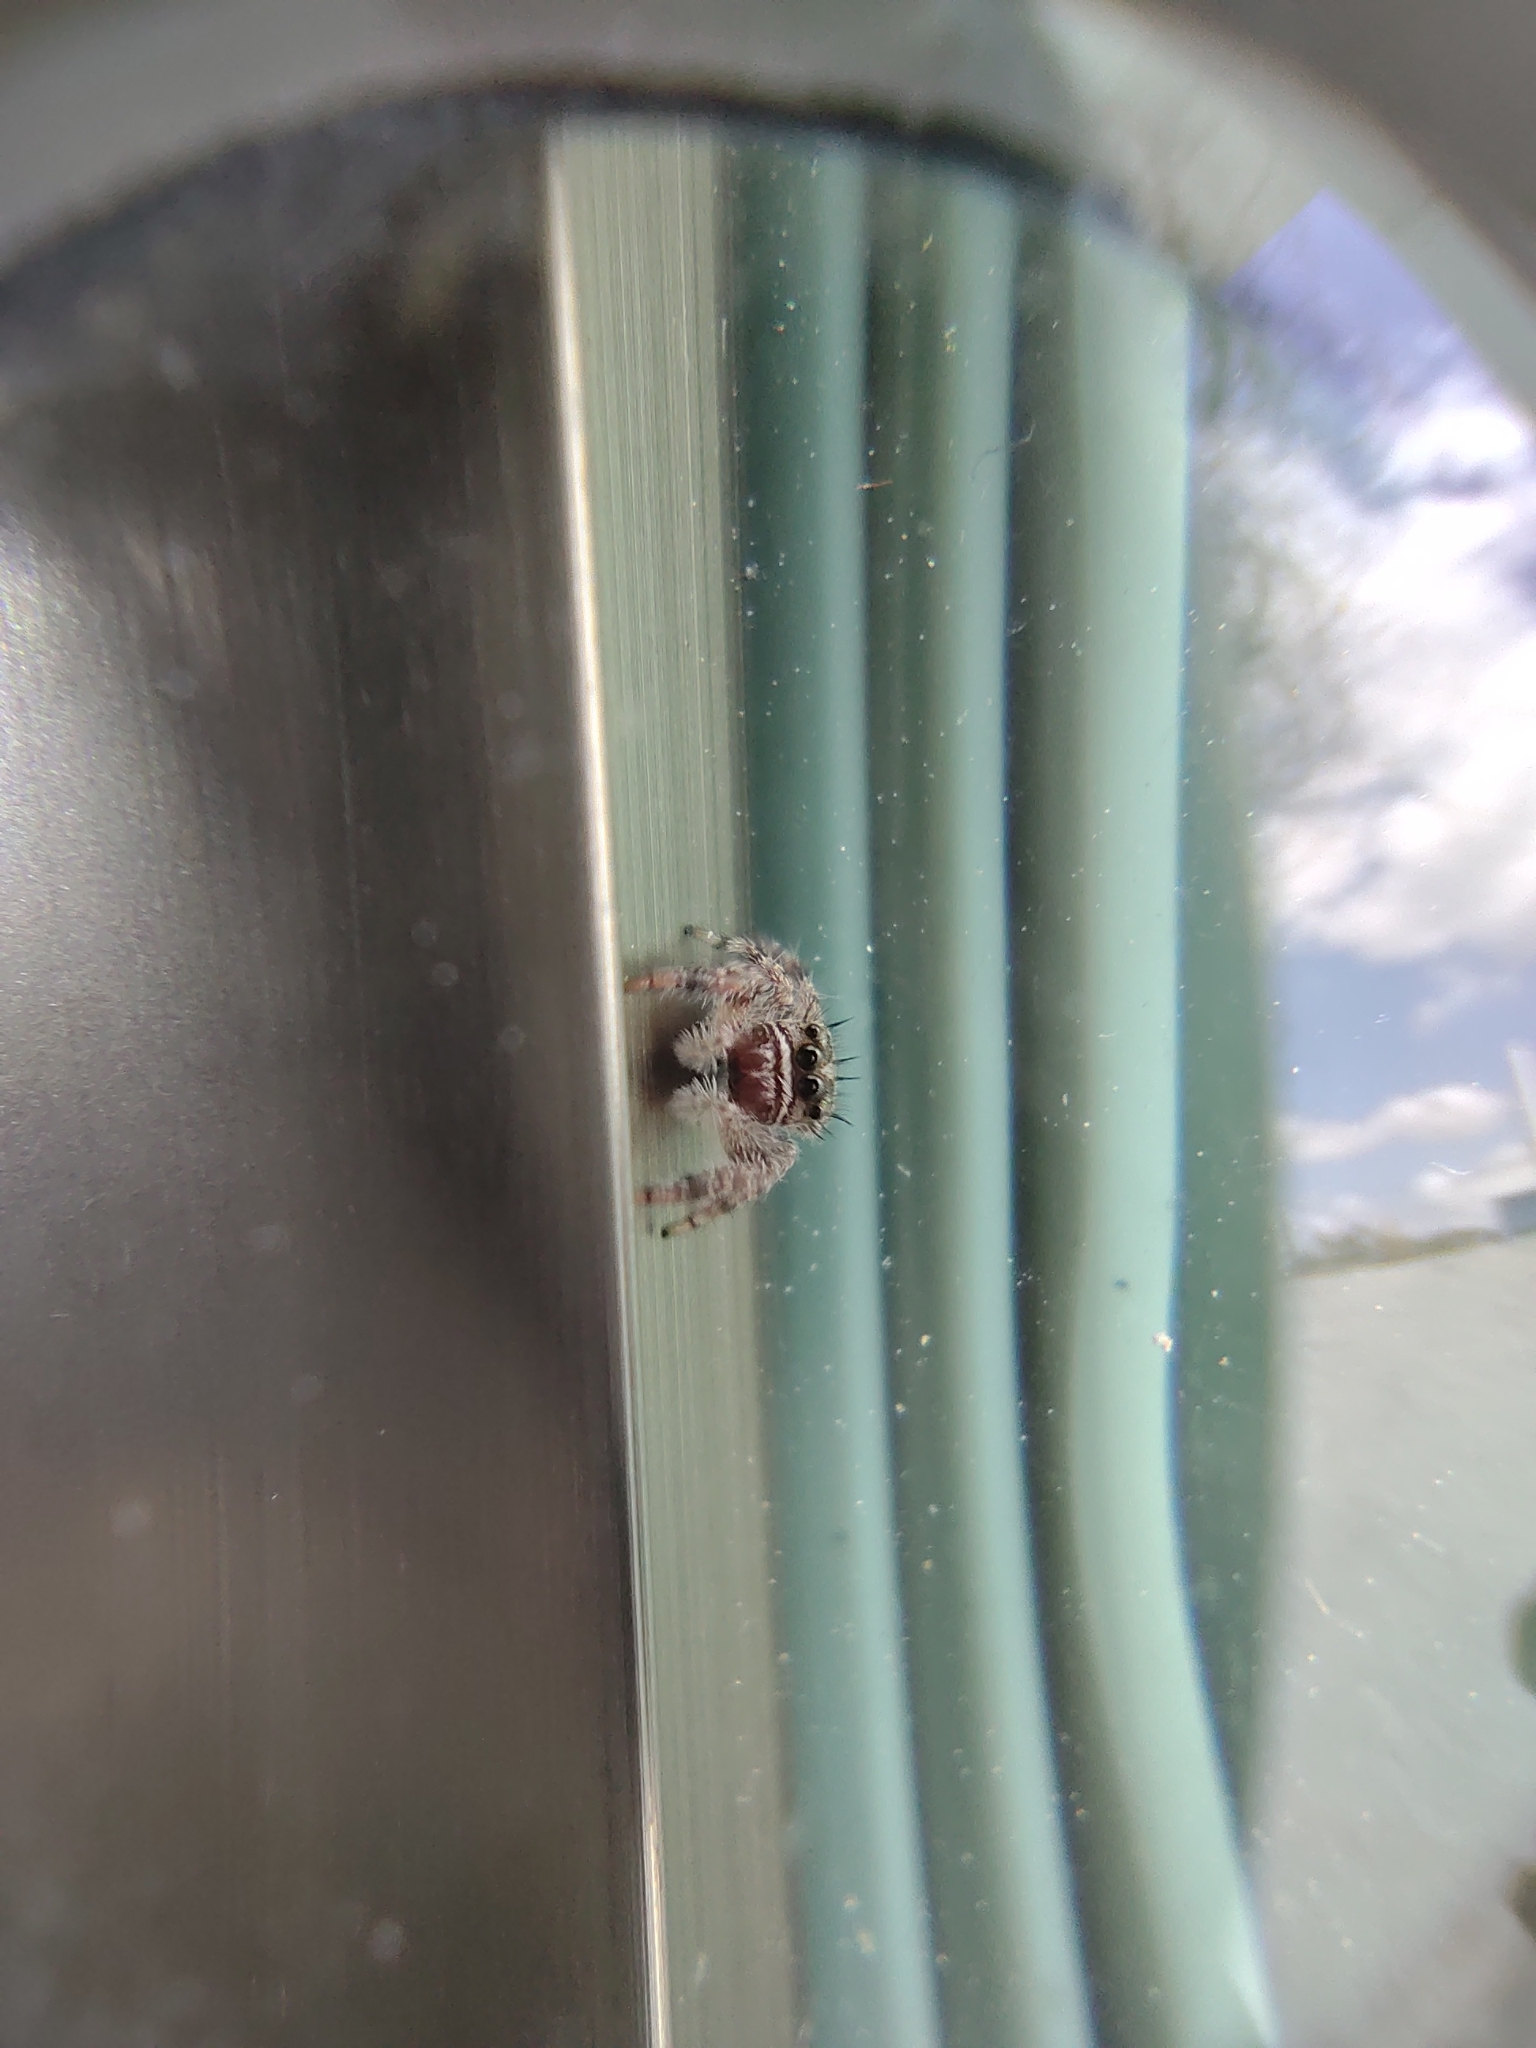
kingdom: Animalia
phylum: Arthropoda
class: Arachnida
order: Araneae
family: Salticidae
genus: Phidippus
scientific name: Phidippus bidentatus
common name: Jumping spiders
